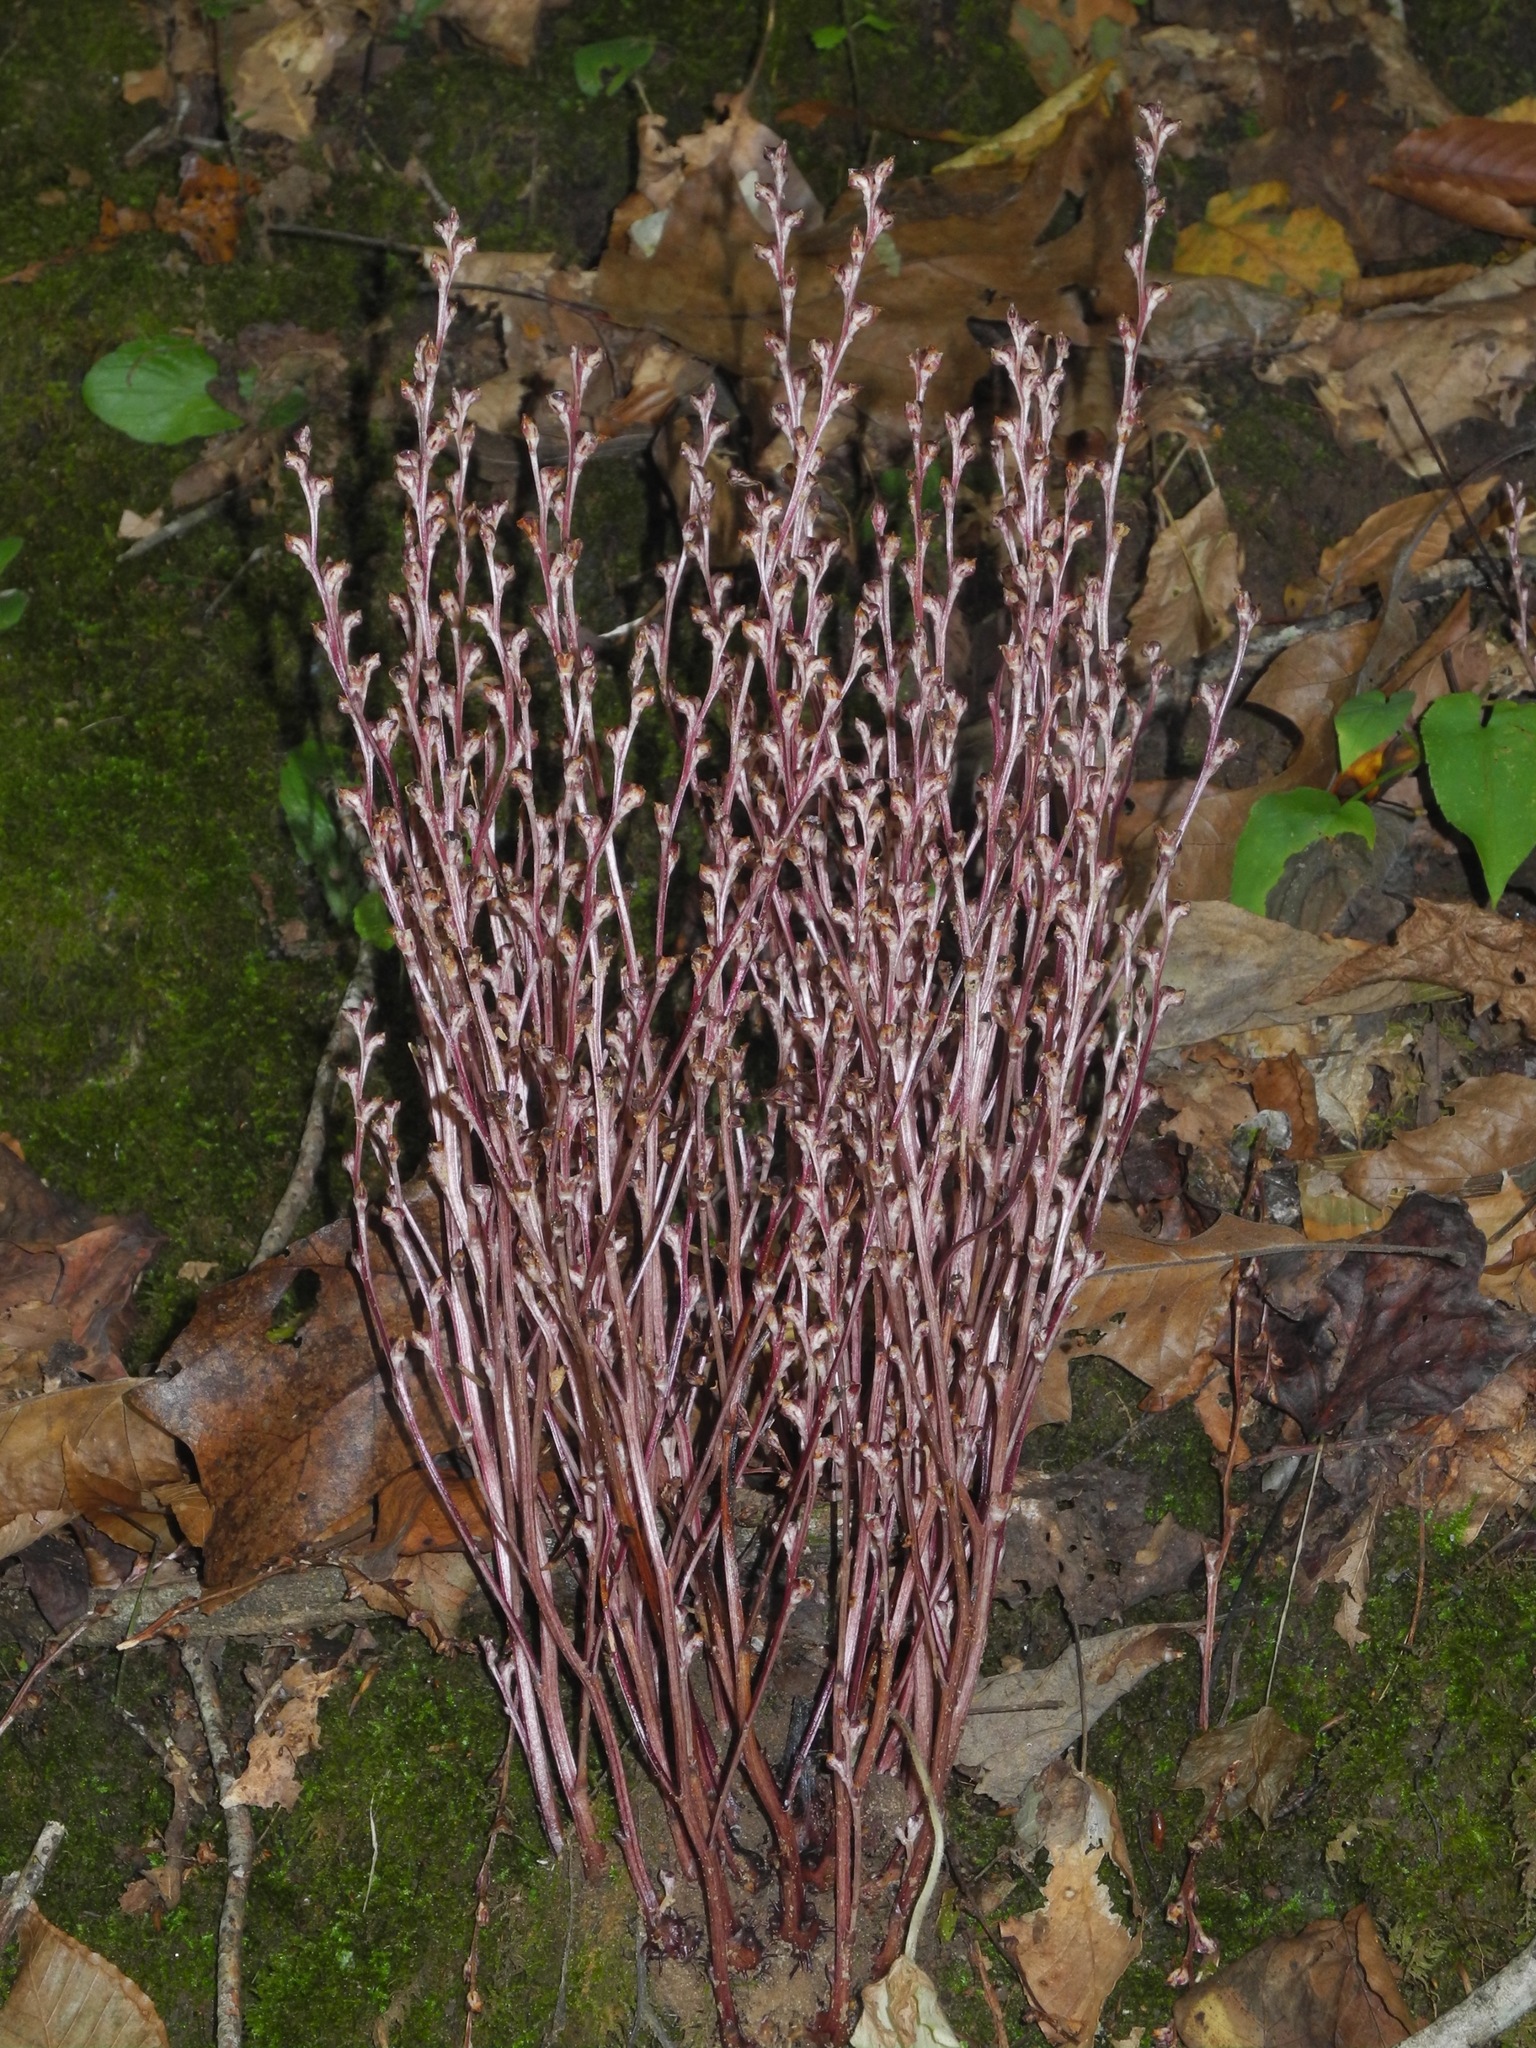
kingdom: Plantae
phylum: Tracheophyta
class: Magnoliopsida
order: Lamiales
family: Orobanchaceae
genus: Epifagus
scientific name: Epifagus virginiana
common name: Beechdrops
